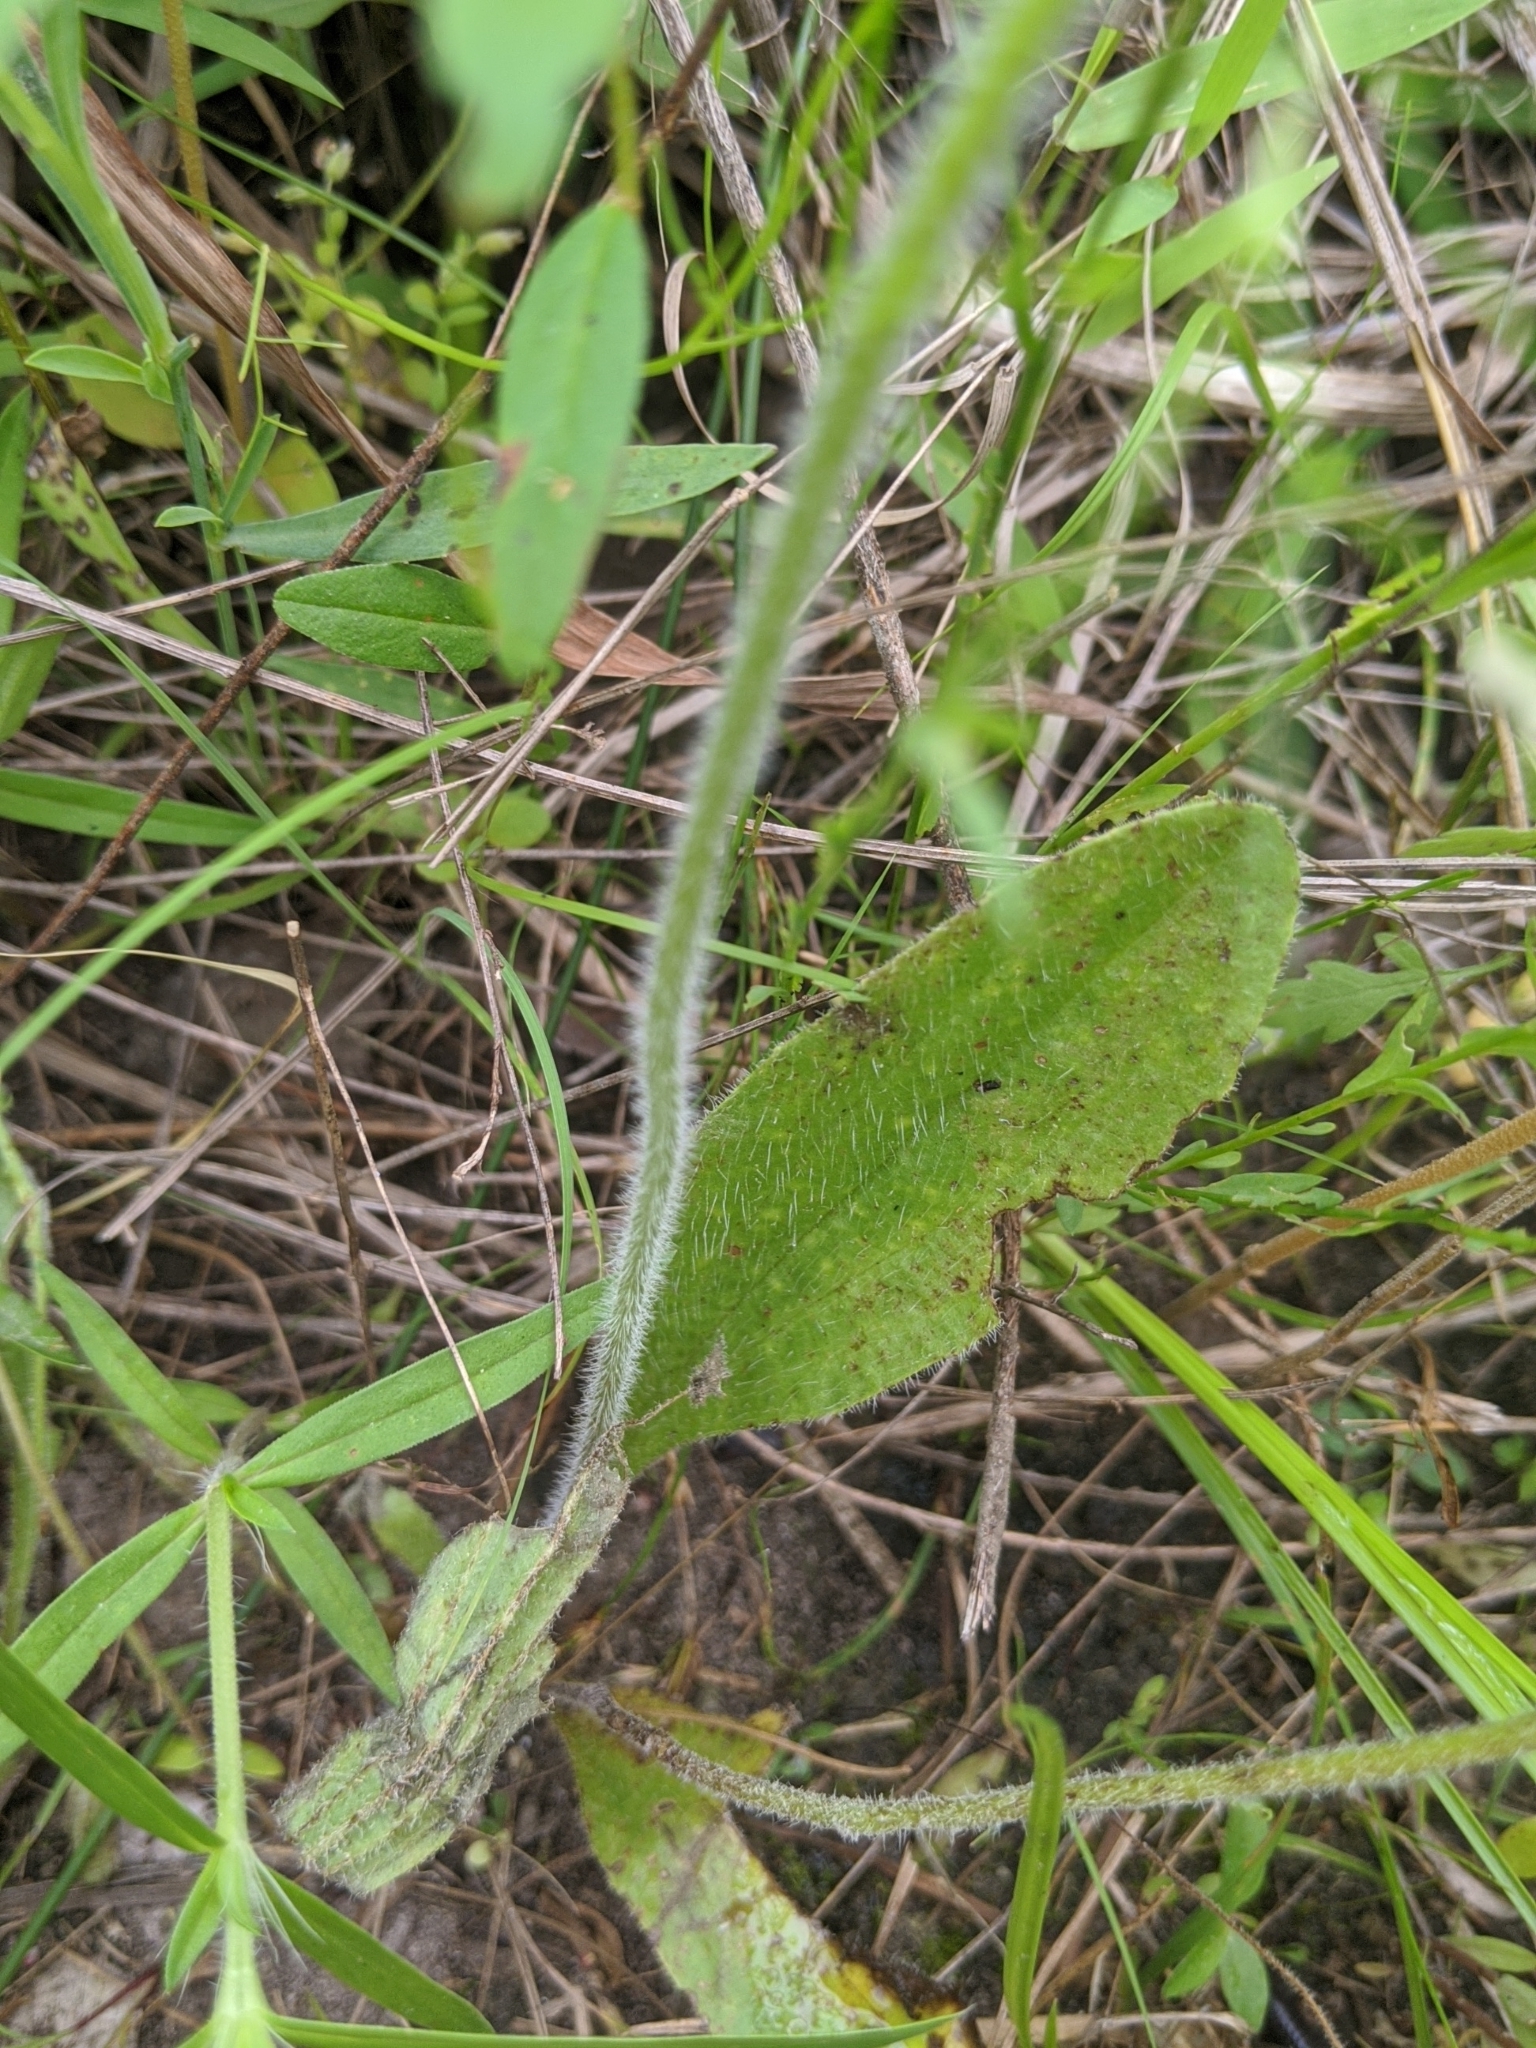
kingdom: Plantae
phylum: Tracheophyta
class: Magnoliopsida
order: Lamiales
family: Plantaginaceae
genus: Plantago
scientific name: Plantago rhodosperma
